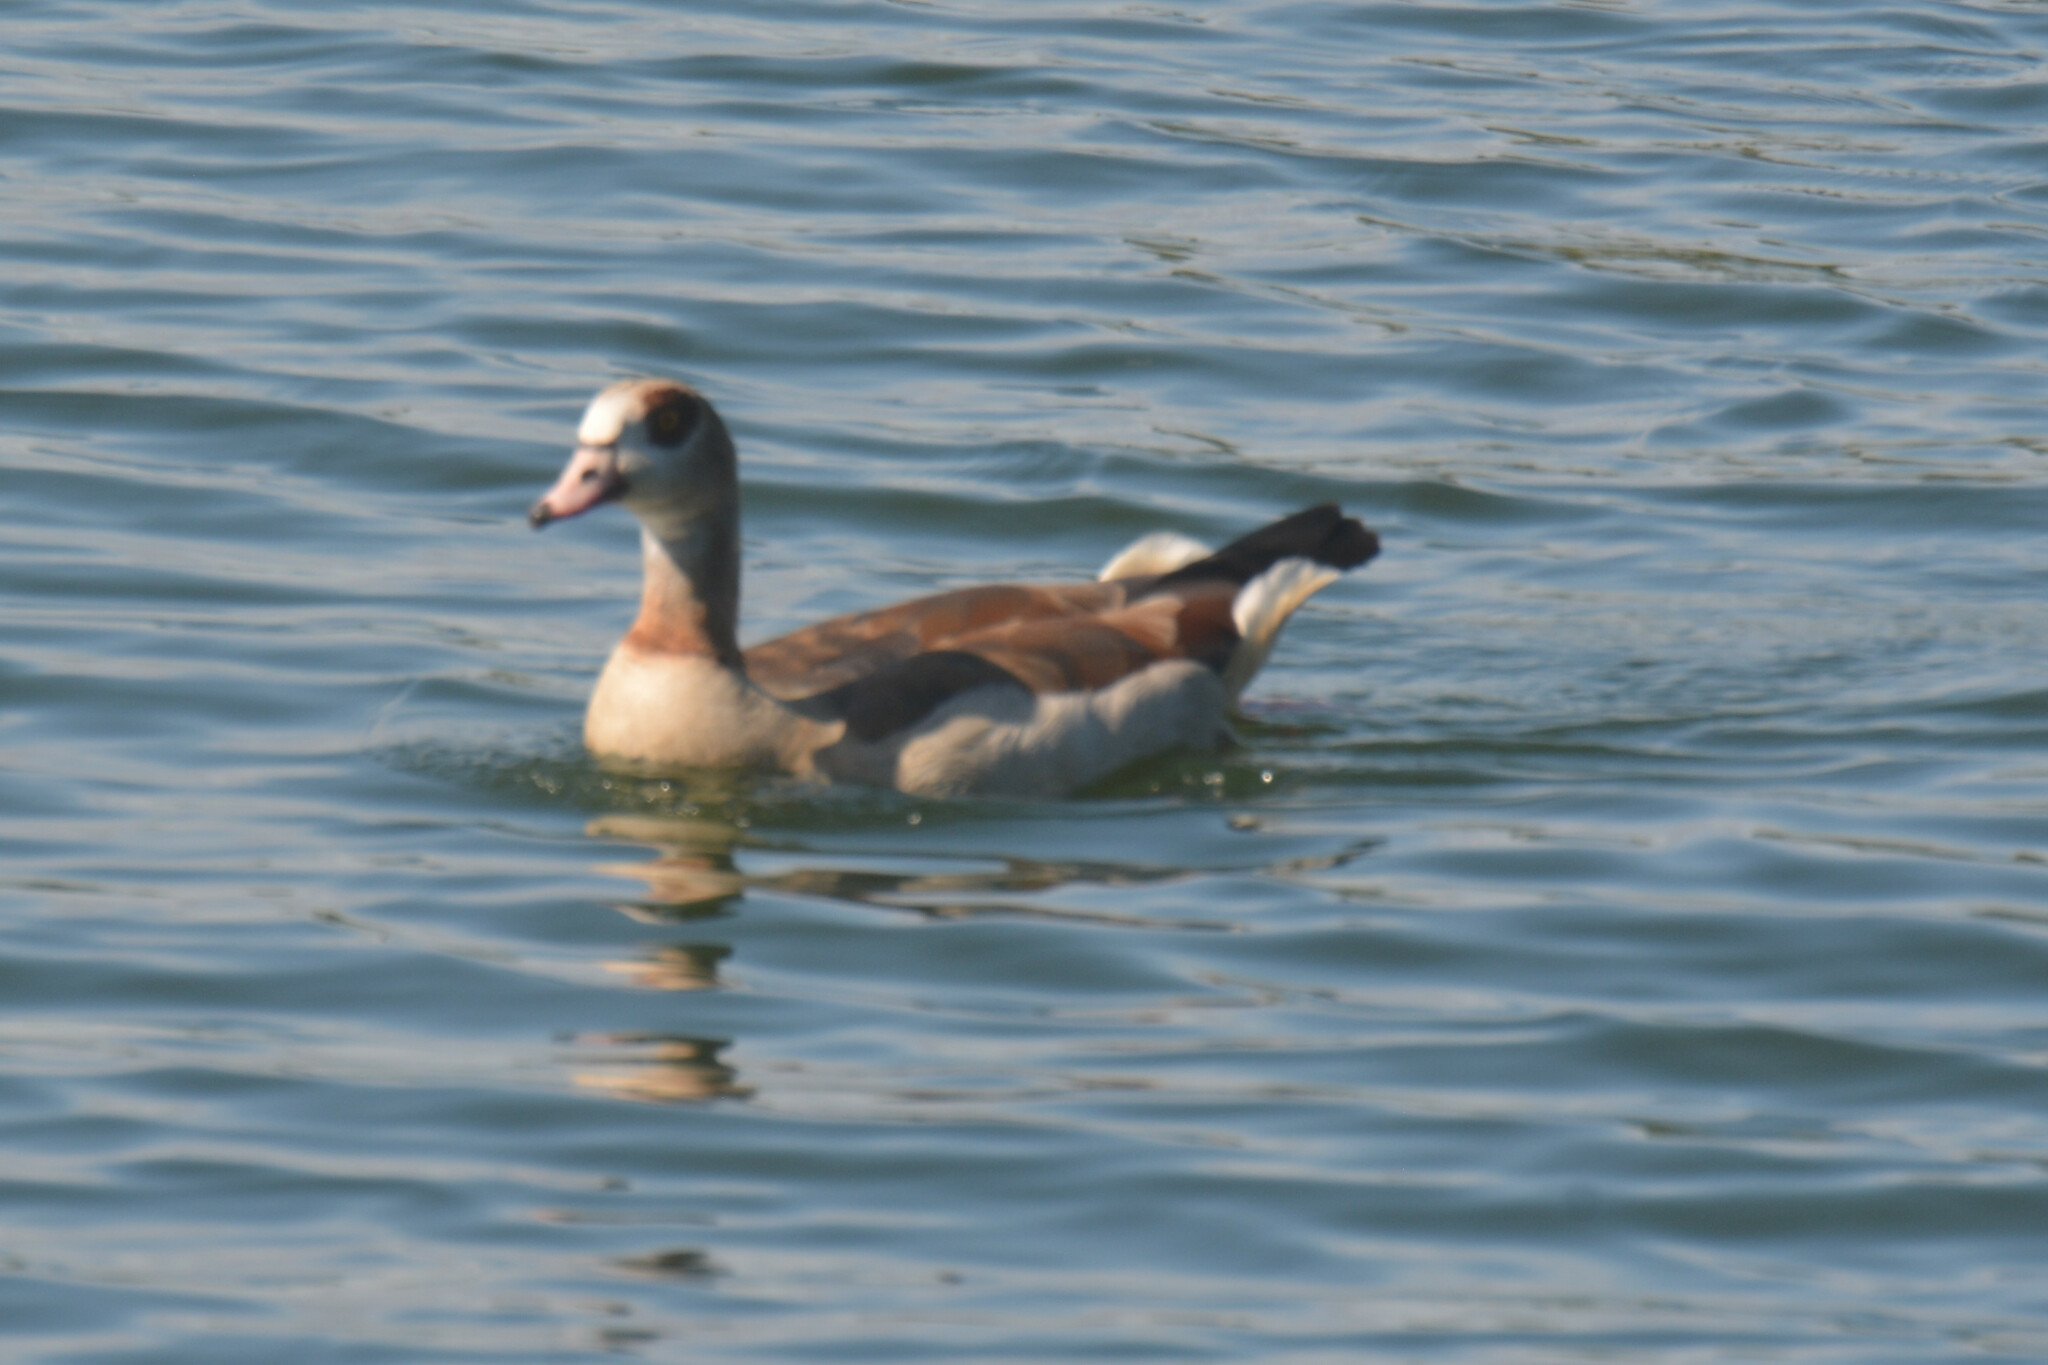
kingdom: Animalia
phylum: Chordata
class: Aves
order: Anseriformes
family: Anatidae
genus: Alopochen
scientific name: Alopochen aegyptiaca
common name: Egyptian goose
